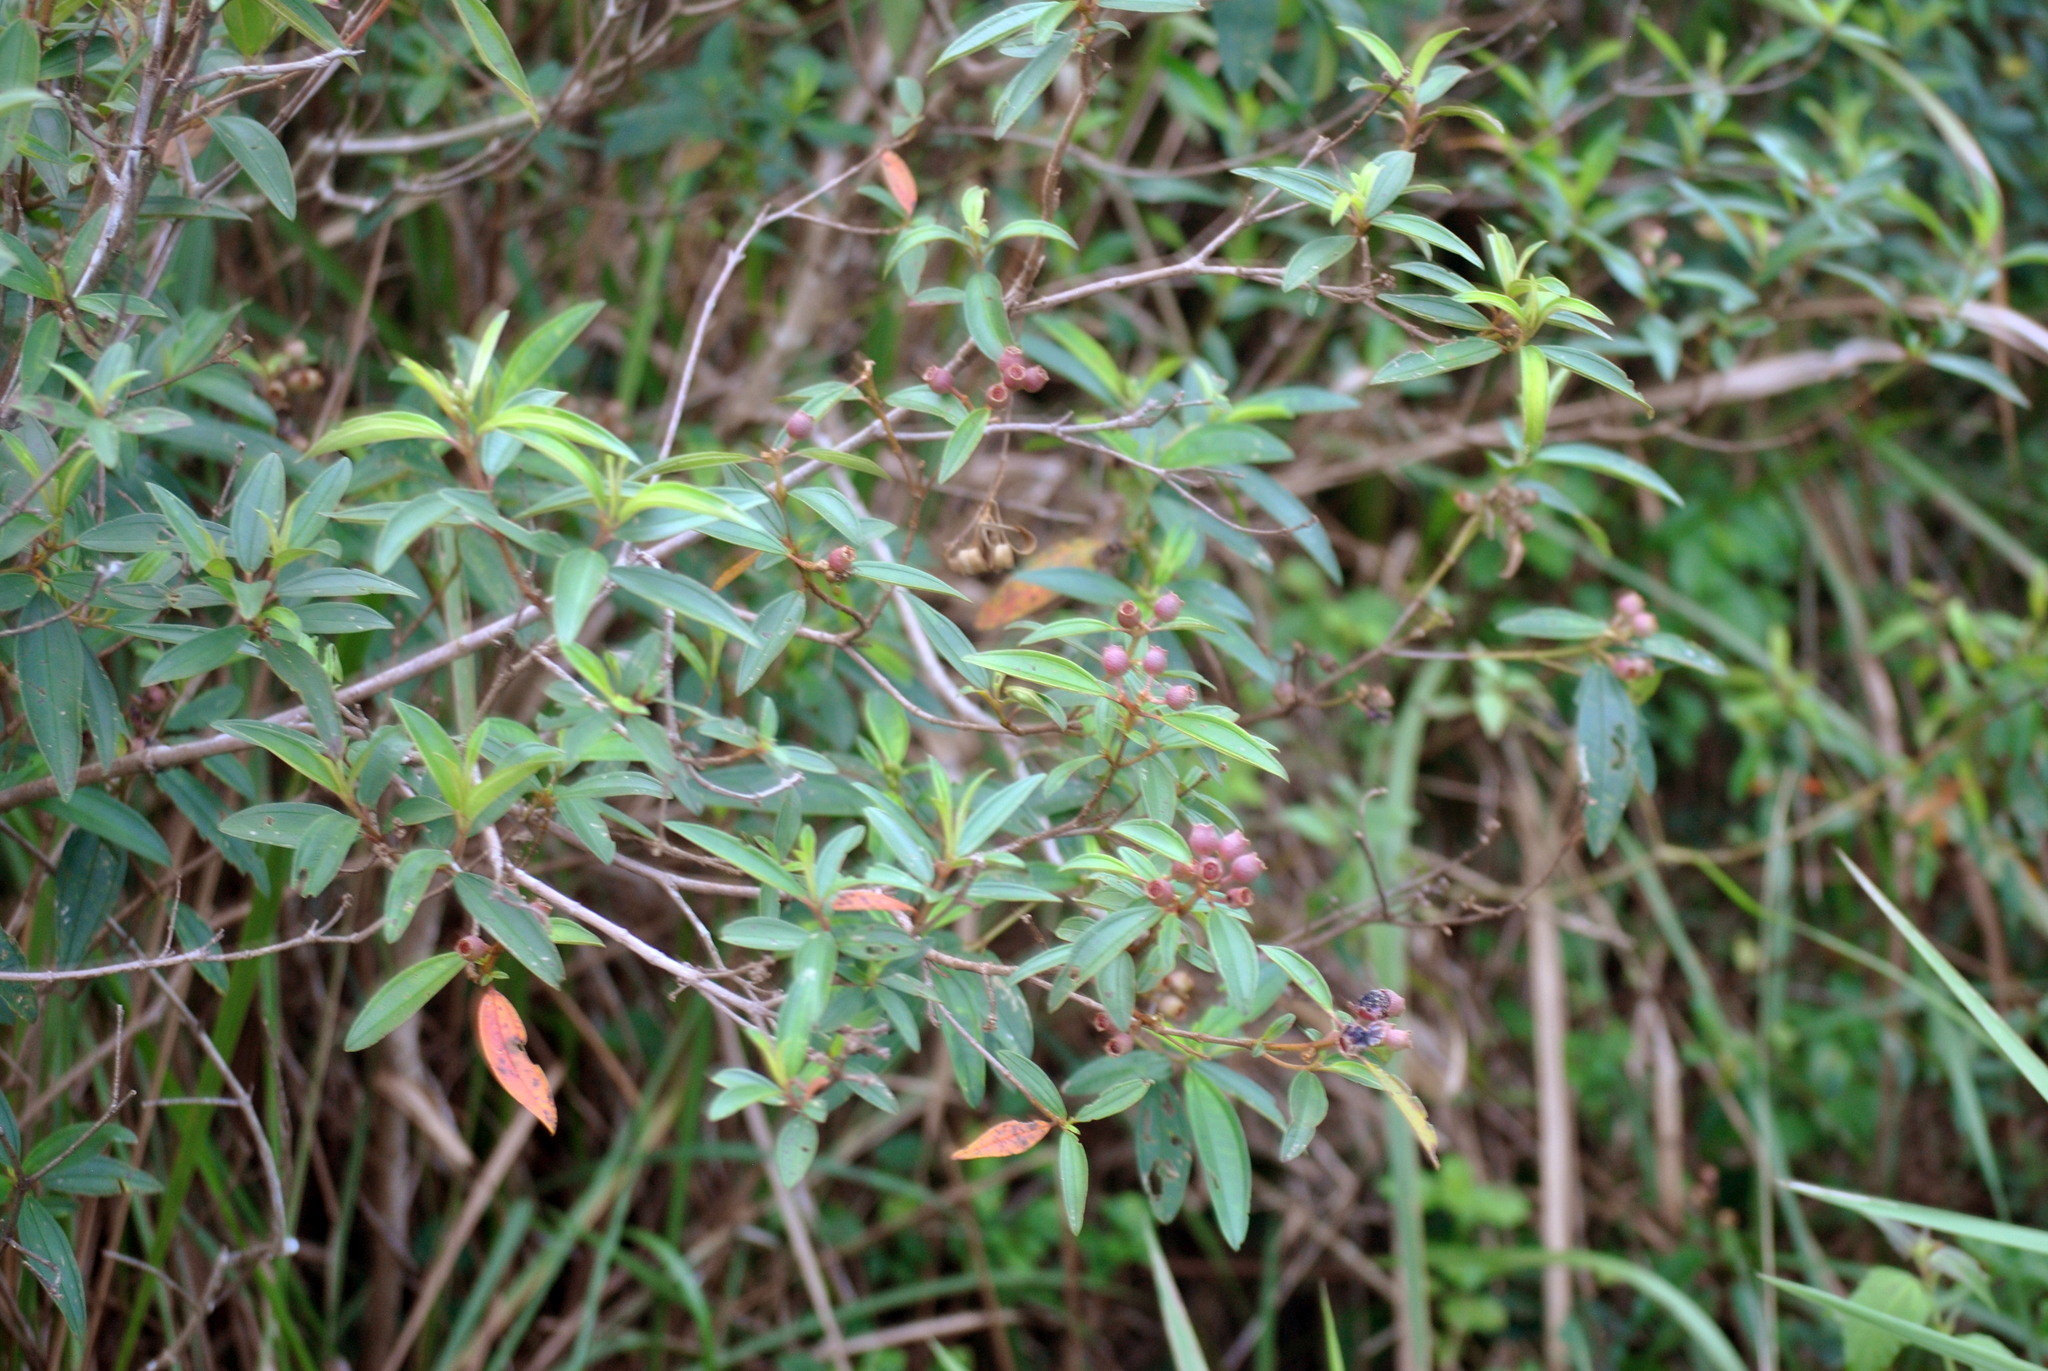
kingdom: Plantae
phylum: Tracheophyta
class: Magnoliopsida
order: Myrtales
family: Melastomataceae
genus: Melastoma
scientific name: Melastoma malabathricum
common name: Indian-rhododendron
